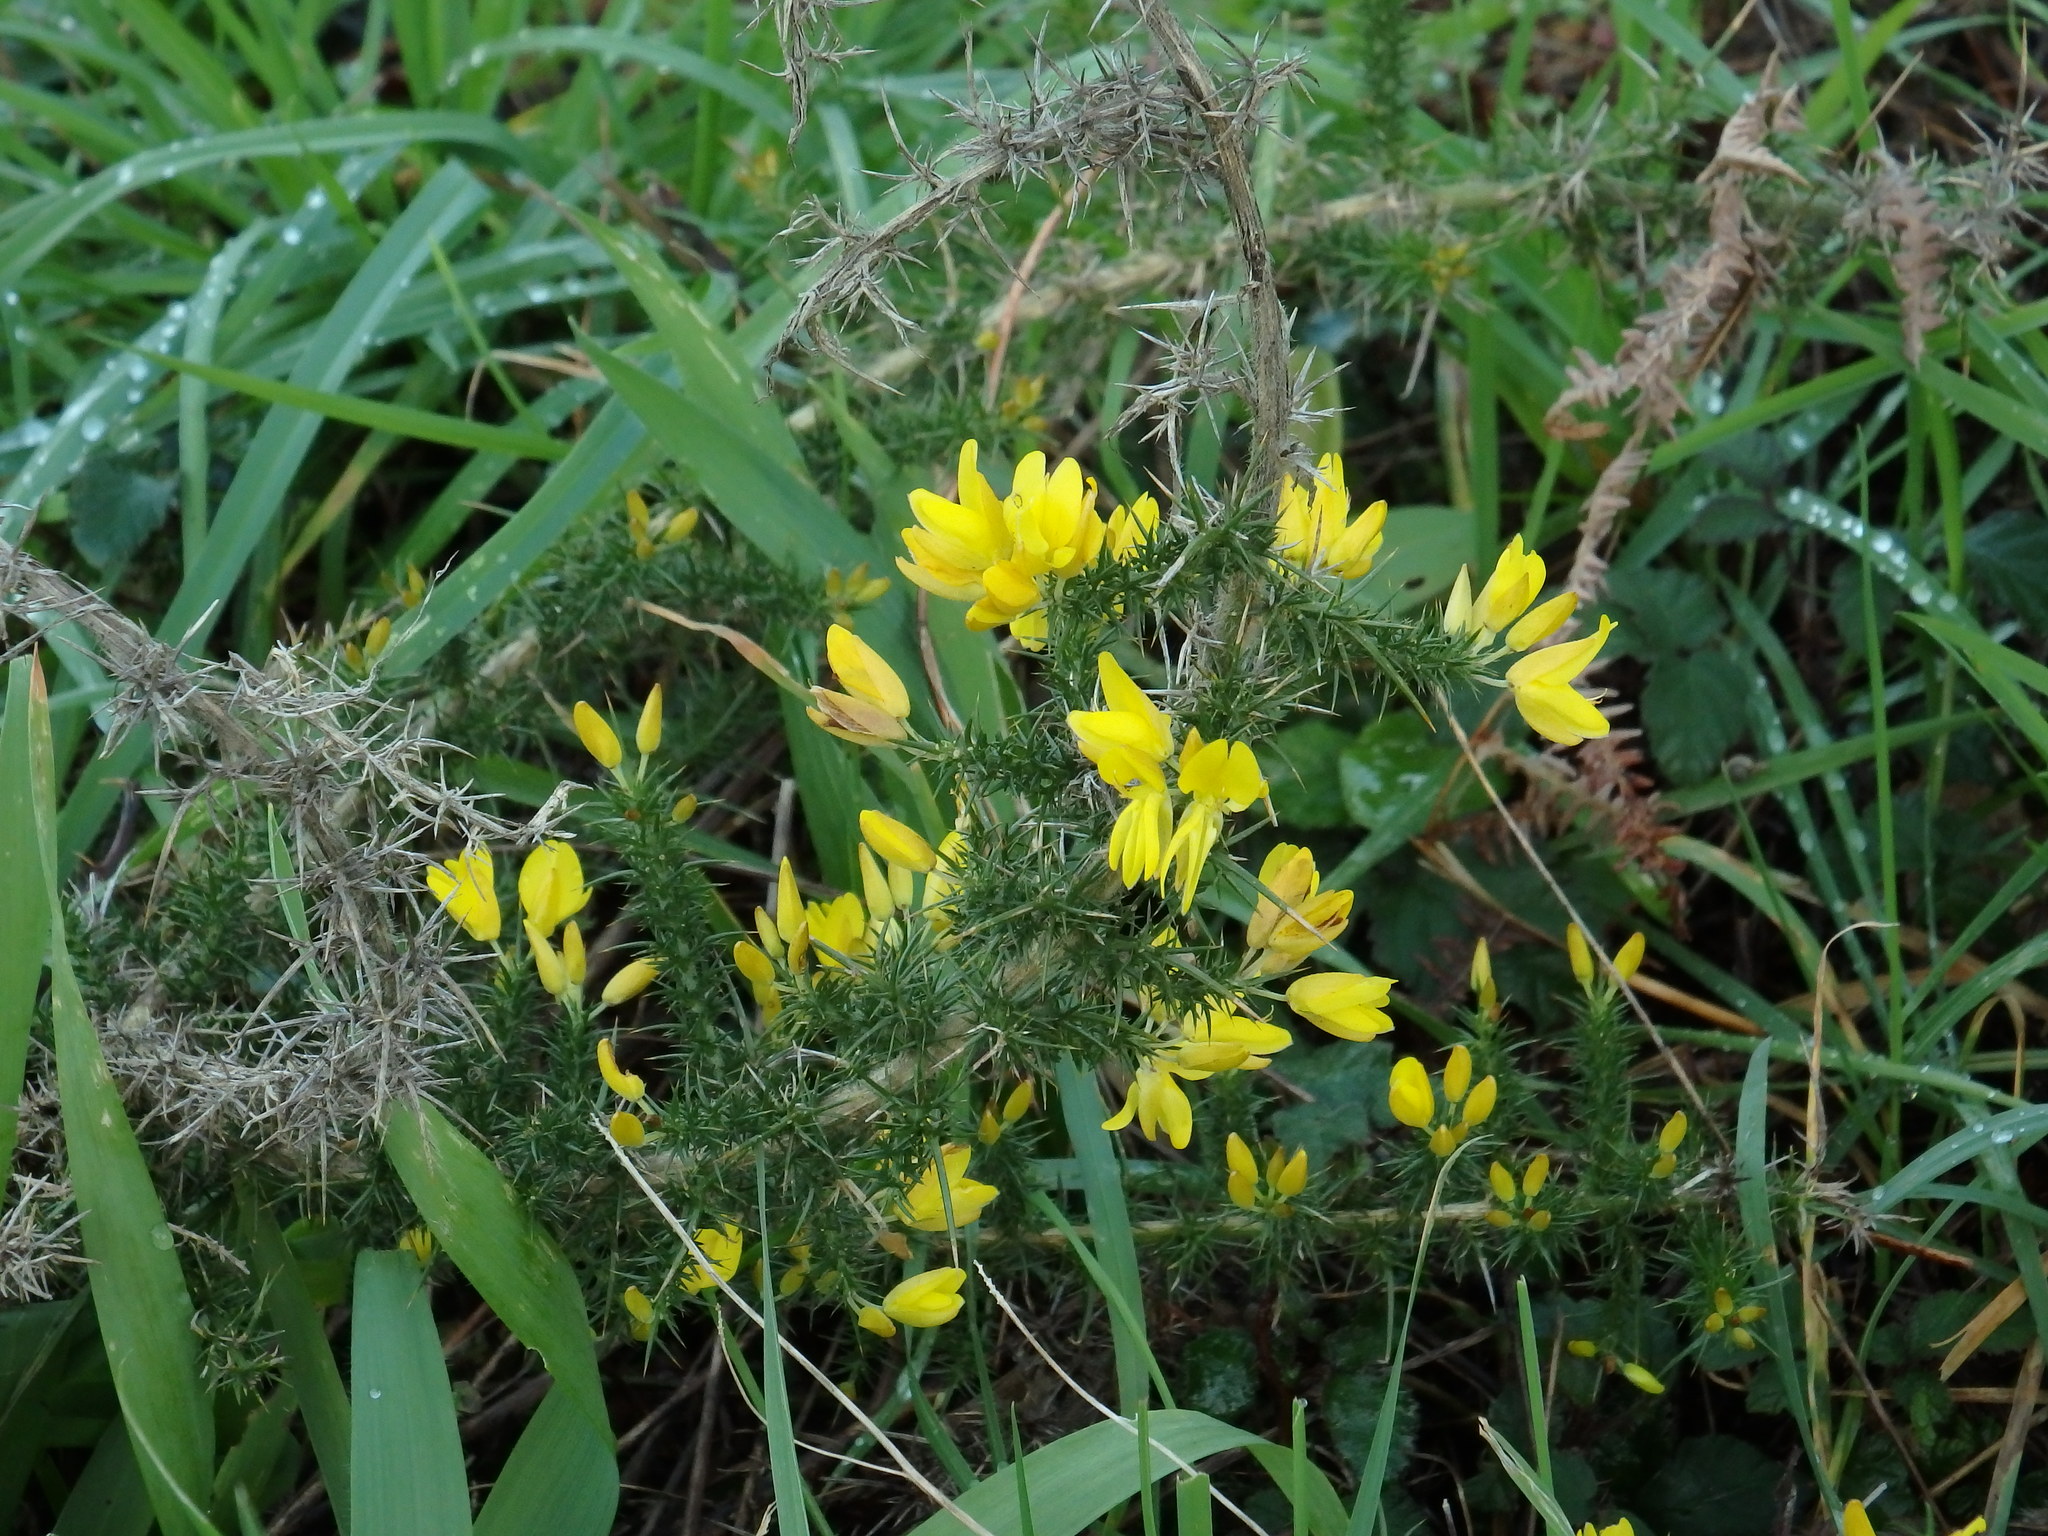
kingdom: Plantae
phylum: Tracheophyta
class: Magnoliopsida
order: Fabales
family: Fabaceae
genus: Ulex
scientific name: Ulex minor
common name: Dwarf gorse
